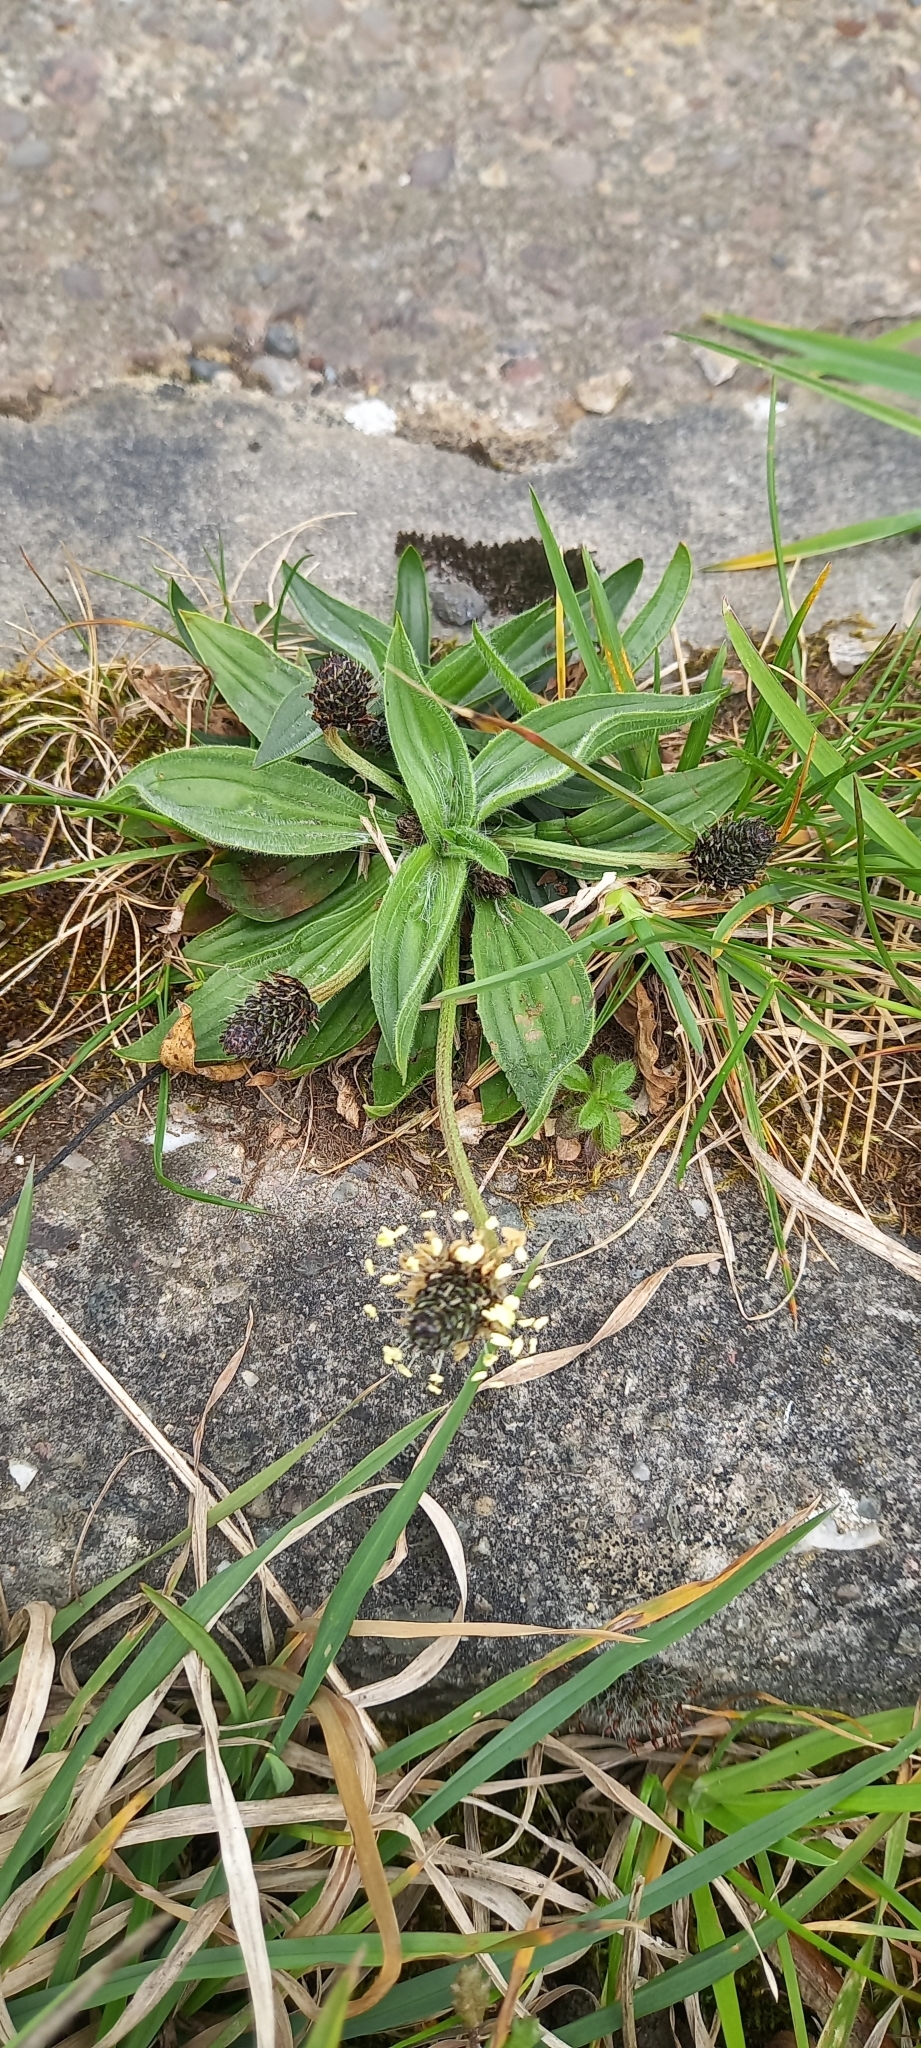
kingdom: Plantae
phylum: Tracheophyta
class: Magnoliopsida
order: Lamiales
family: Plantaginaceae
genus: Plantago
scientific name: Plantago lanceolata
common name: Ribwort plantain
